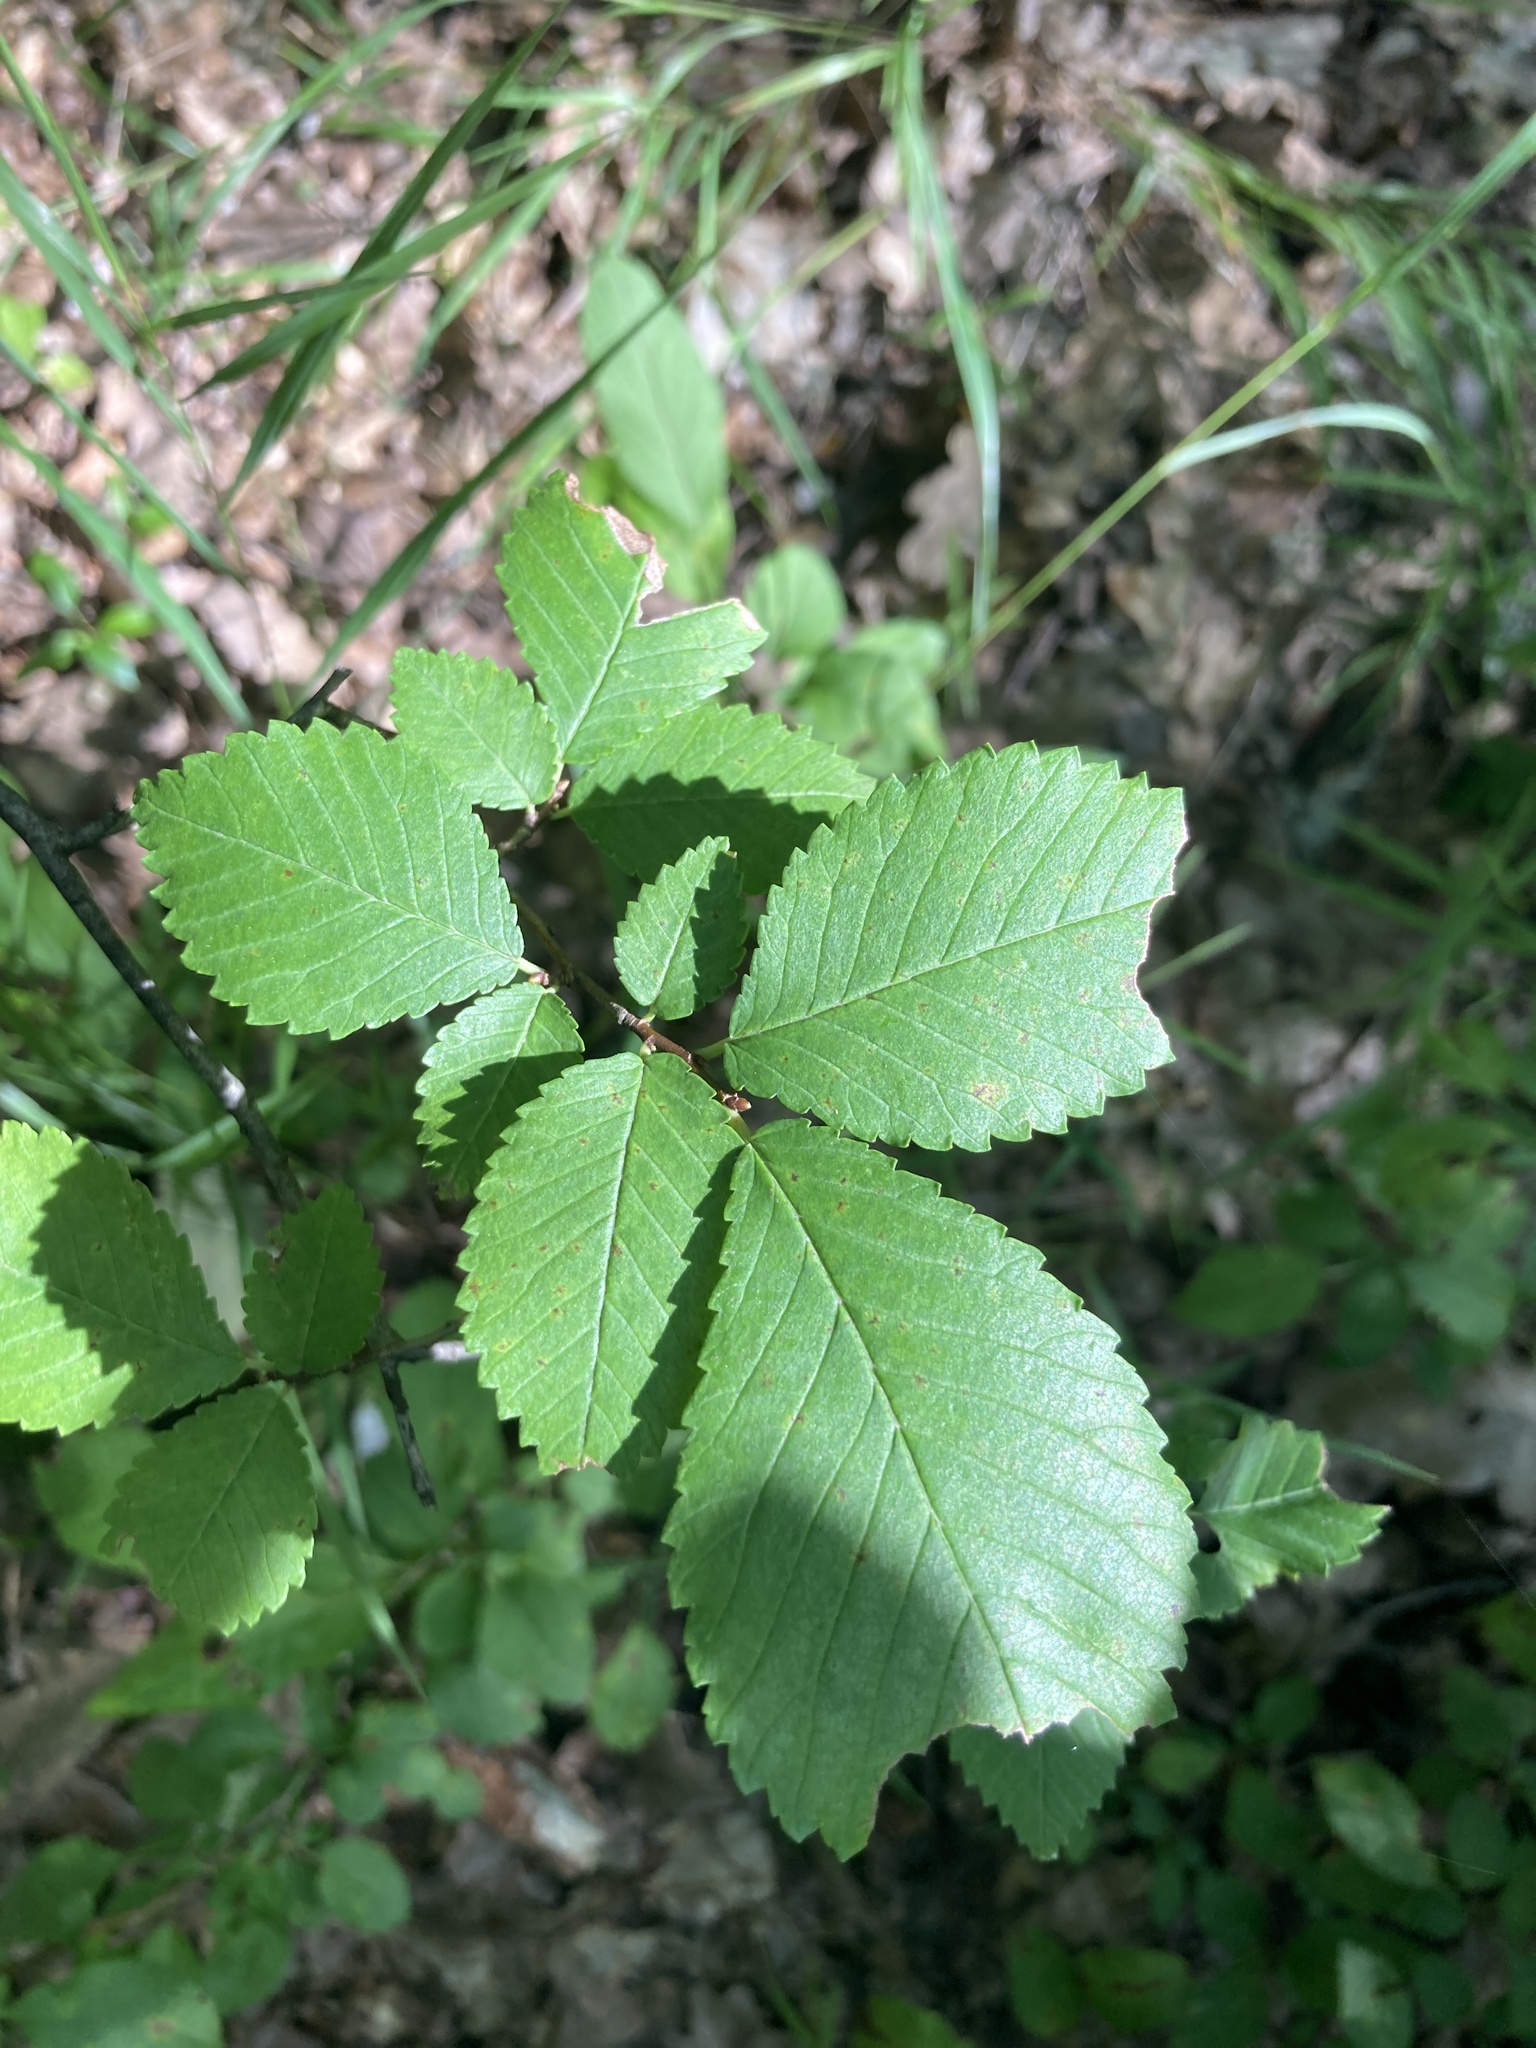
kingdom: Plantae
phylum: Tracheophyta
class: Magnoliopsida
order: Rosales
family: Ulmaceae
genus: Ulmus
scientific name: Ulmus minor
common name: Small-leaved elm
